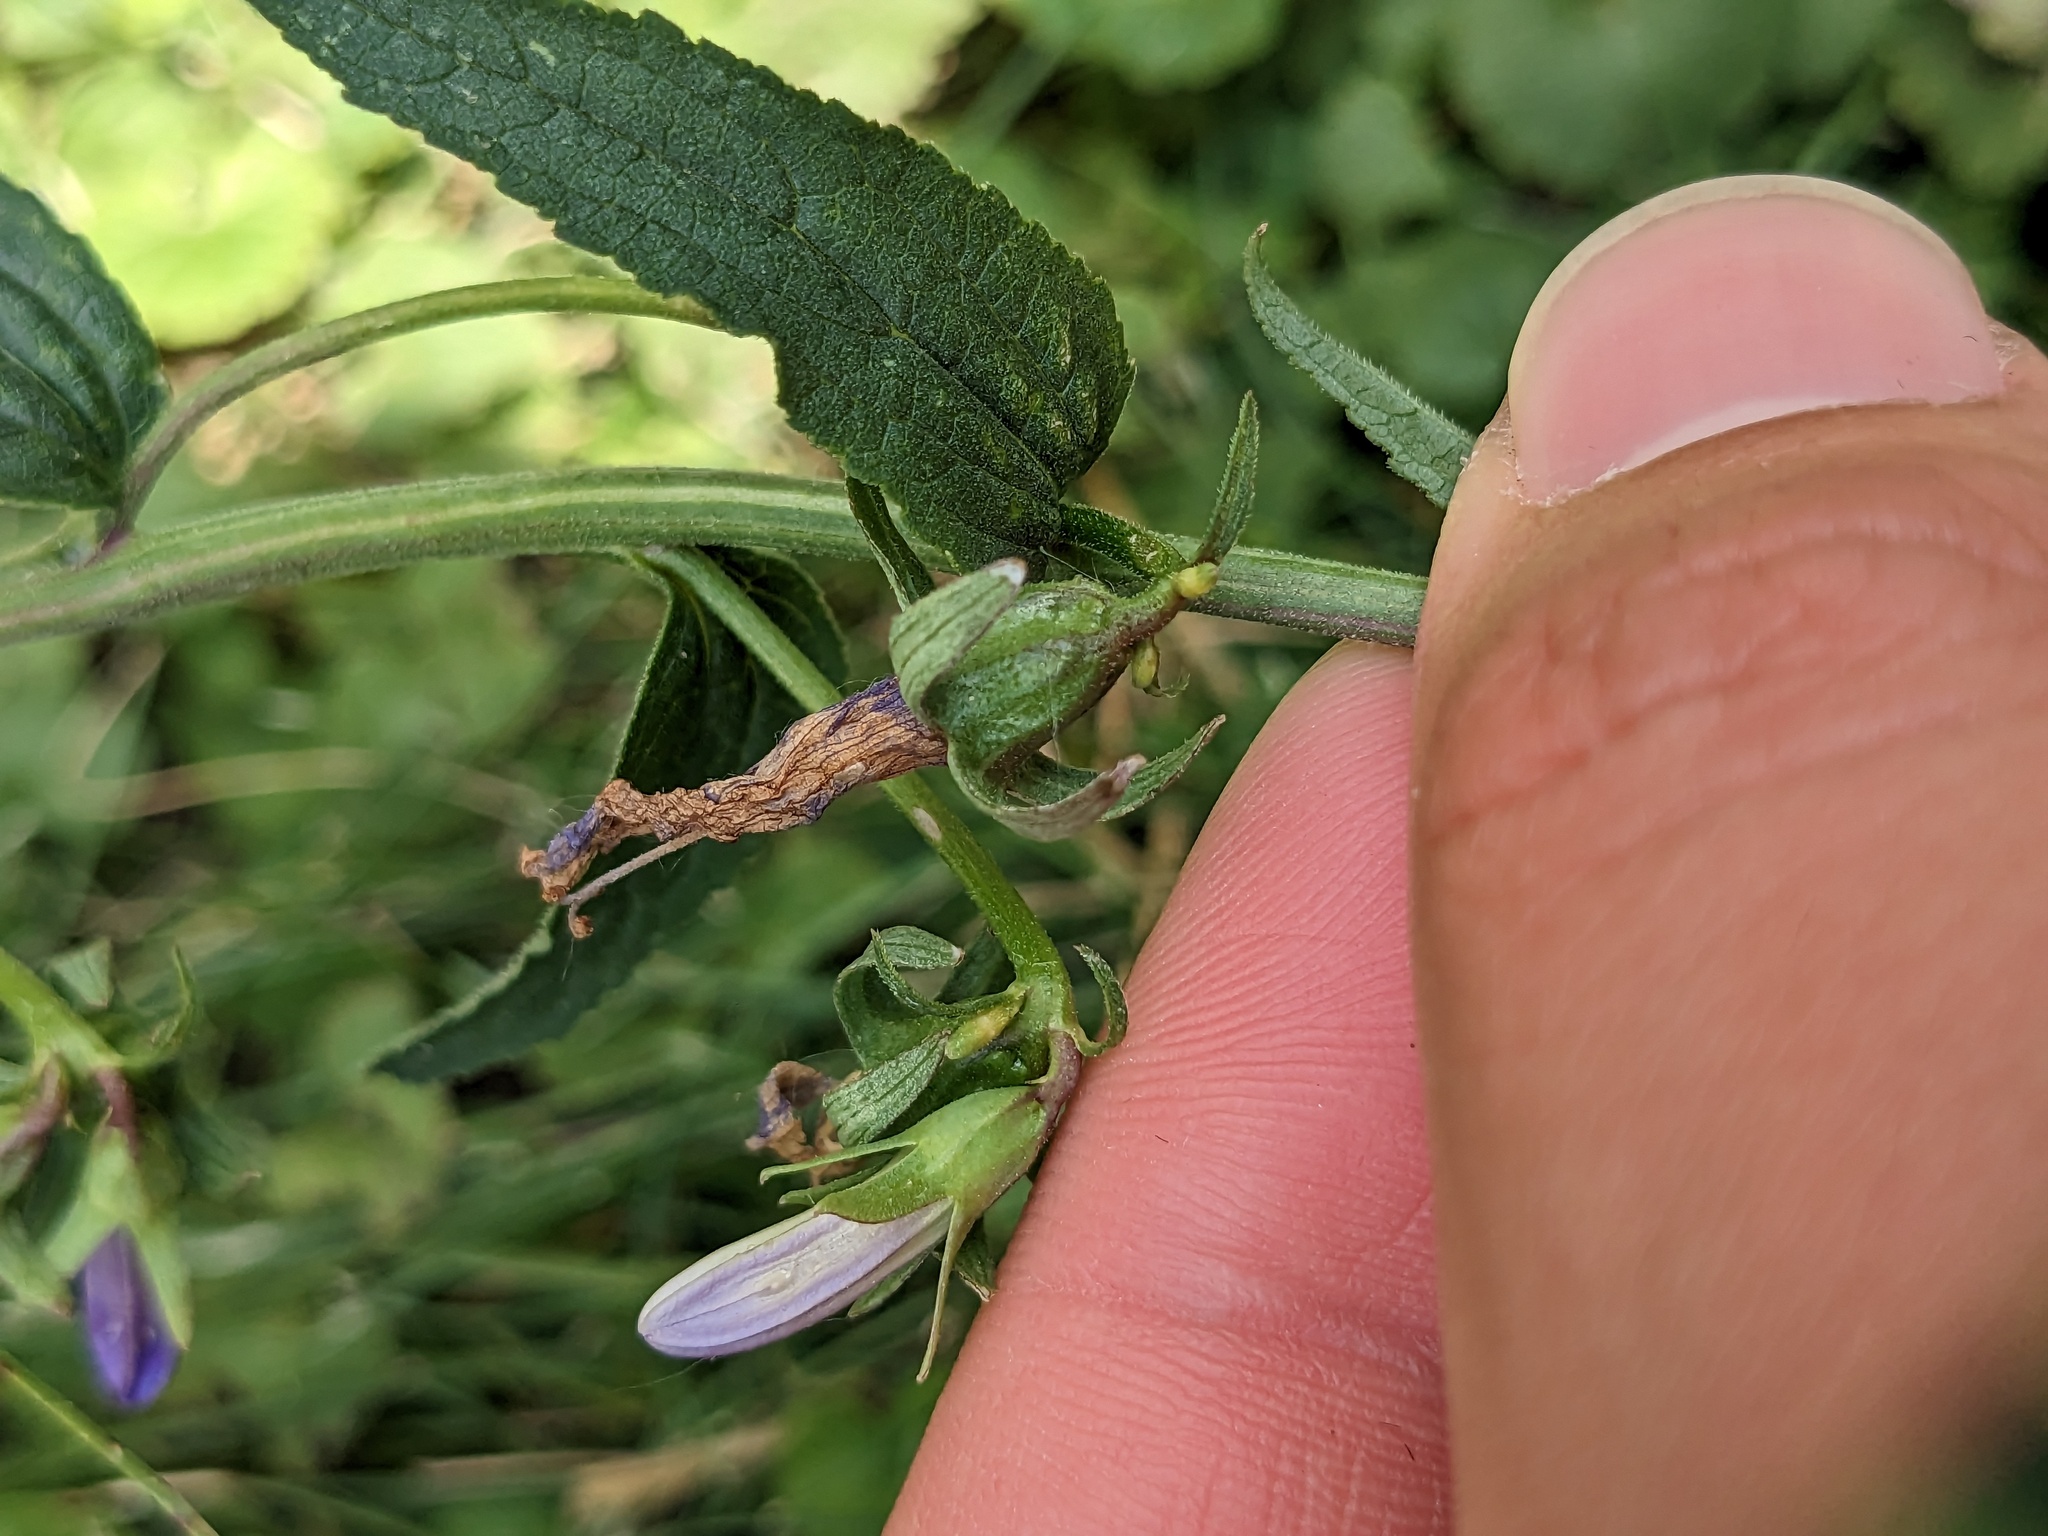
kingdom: Plantae
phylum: Tracheophyta
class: Magnoliopsida
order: Asterales
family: Campanulaceae
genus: Campanula
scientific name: Campanula rapunculoides
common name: Creeping bellflower
